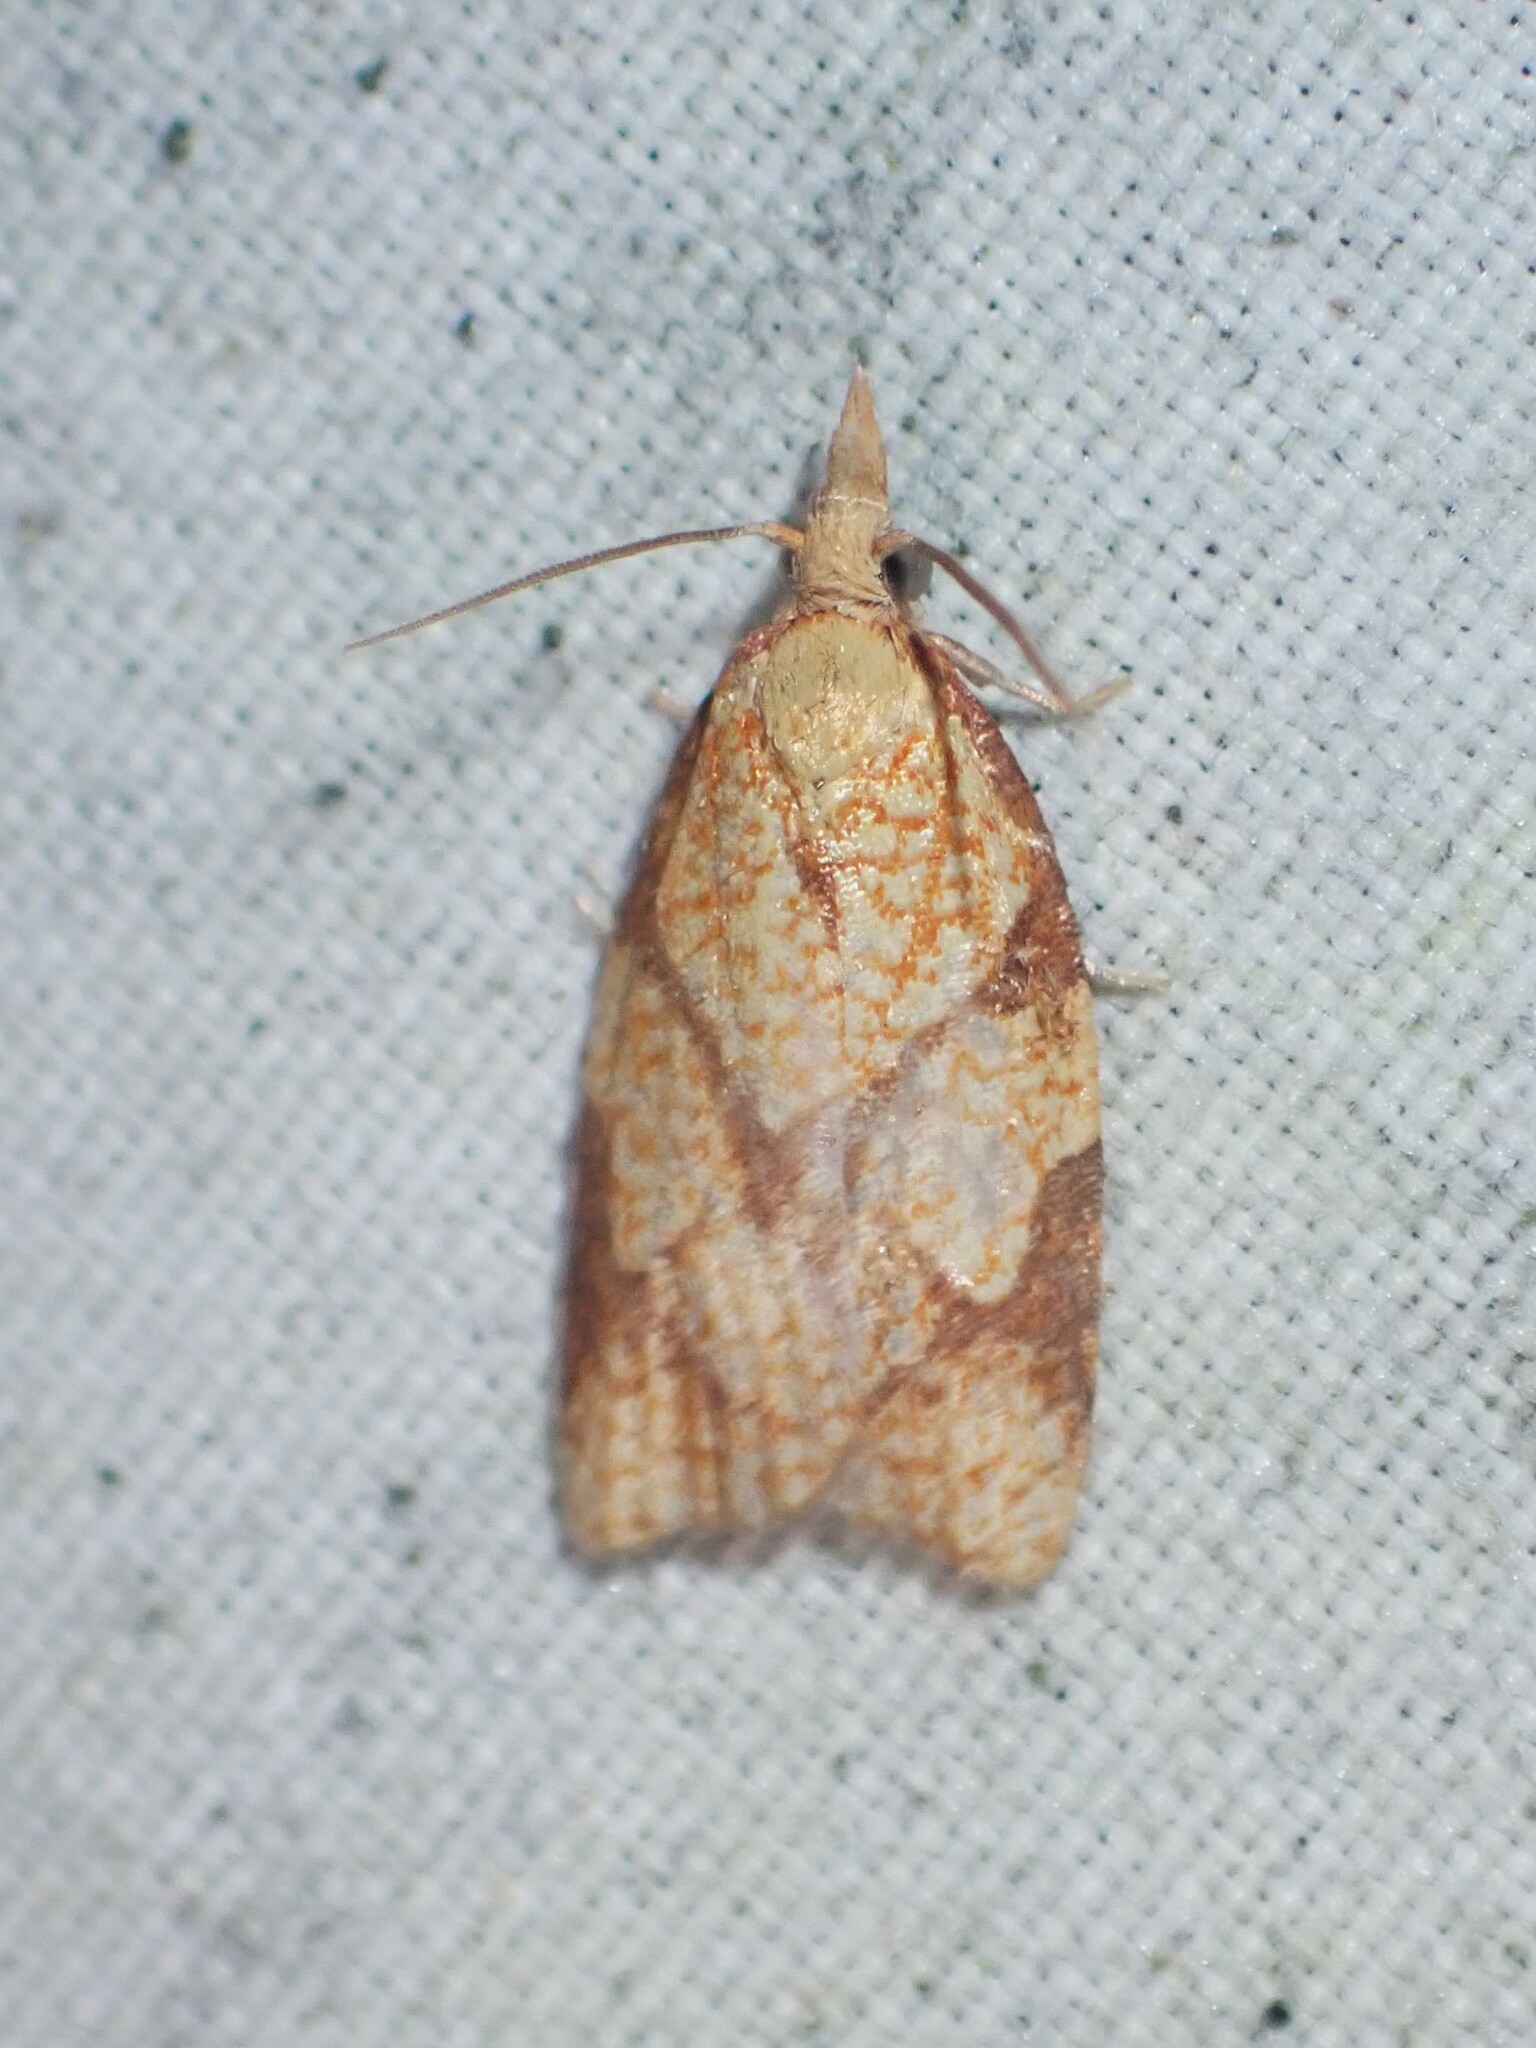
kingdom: Animalia
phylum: Arthropoda
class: Insecta
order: Lepidoptera
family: Tortricidae
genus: Cenopis
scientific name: Cenopis reticulatana
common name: Reticulated fruitworm moth
